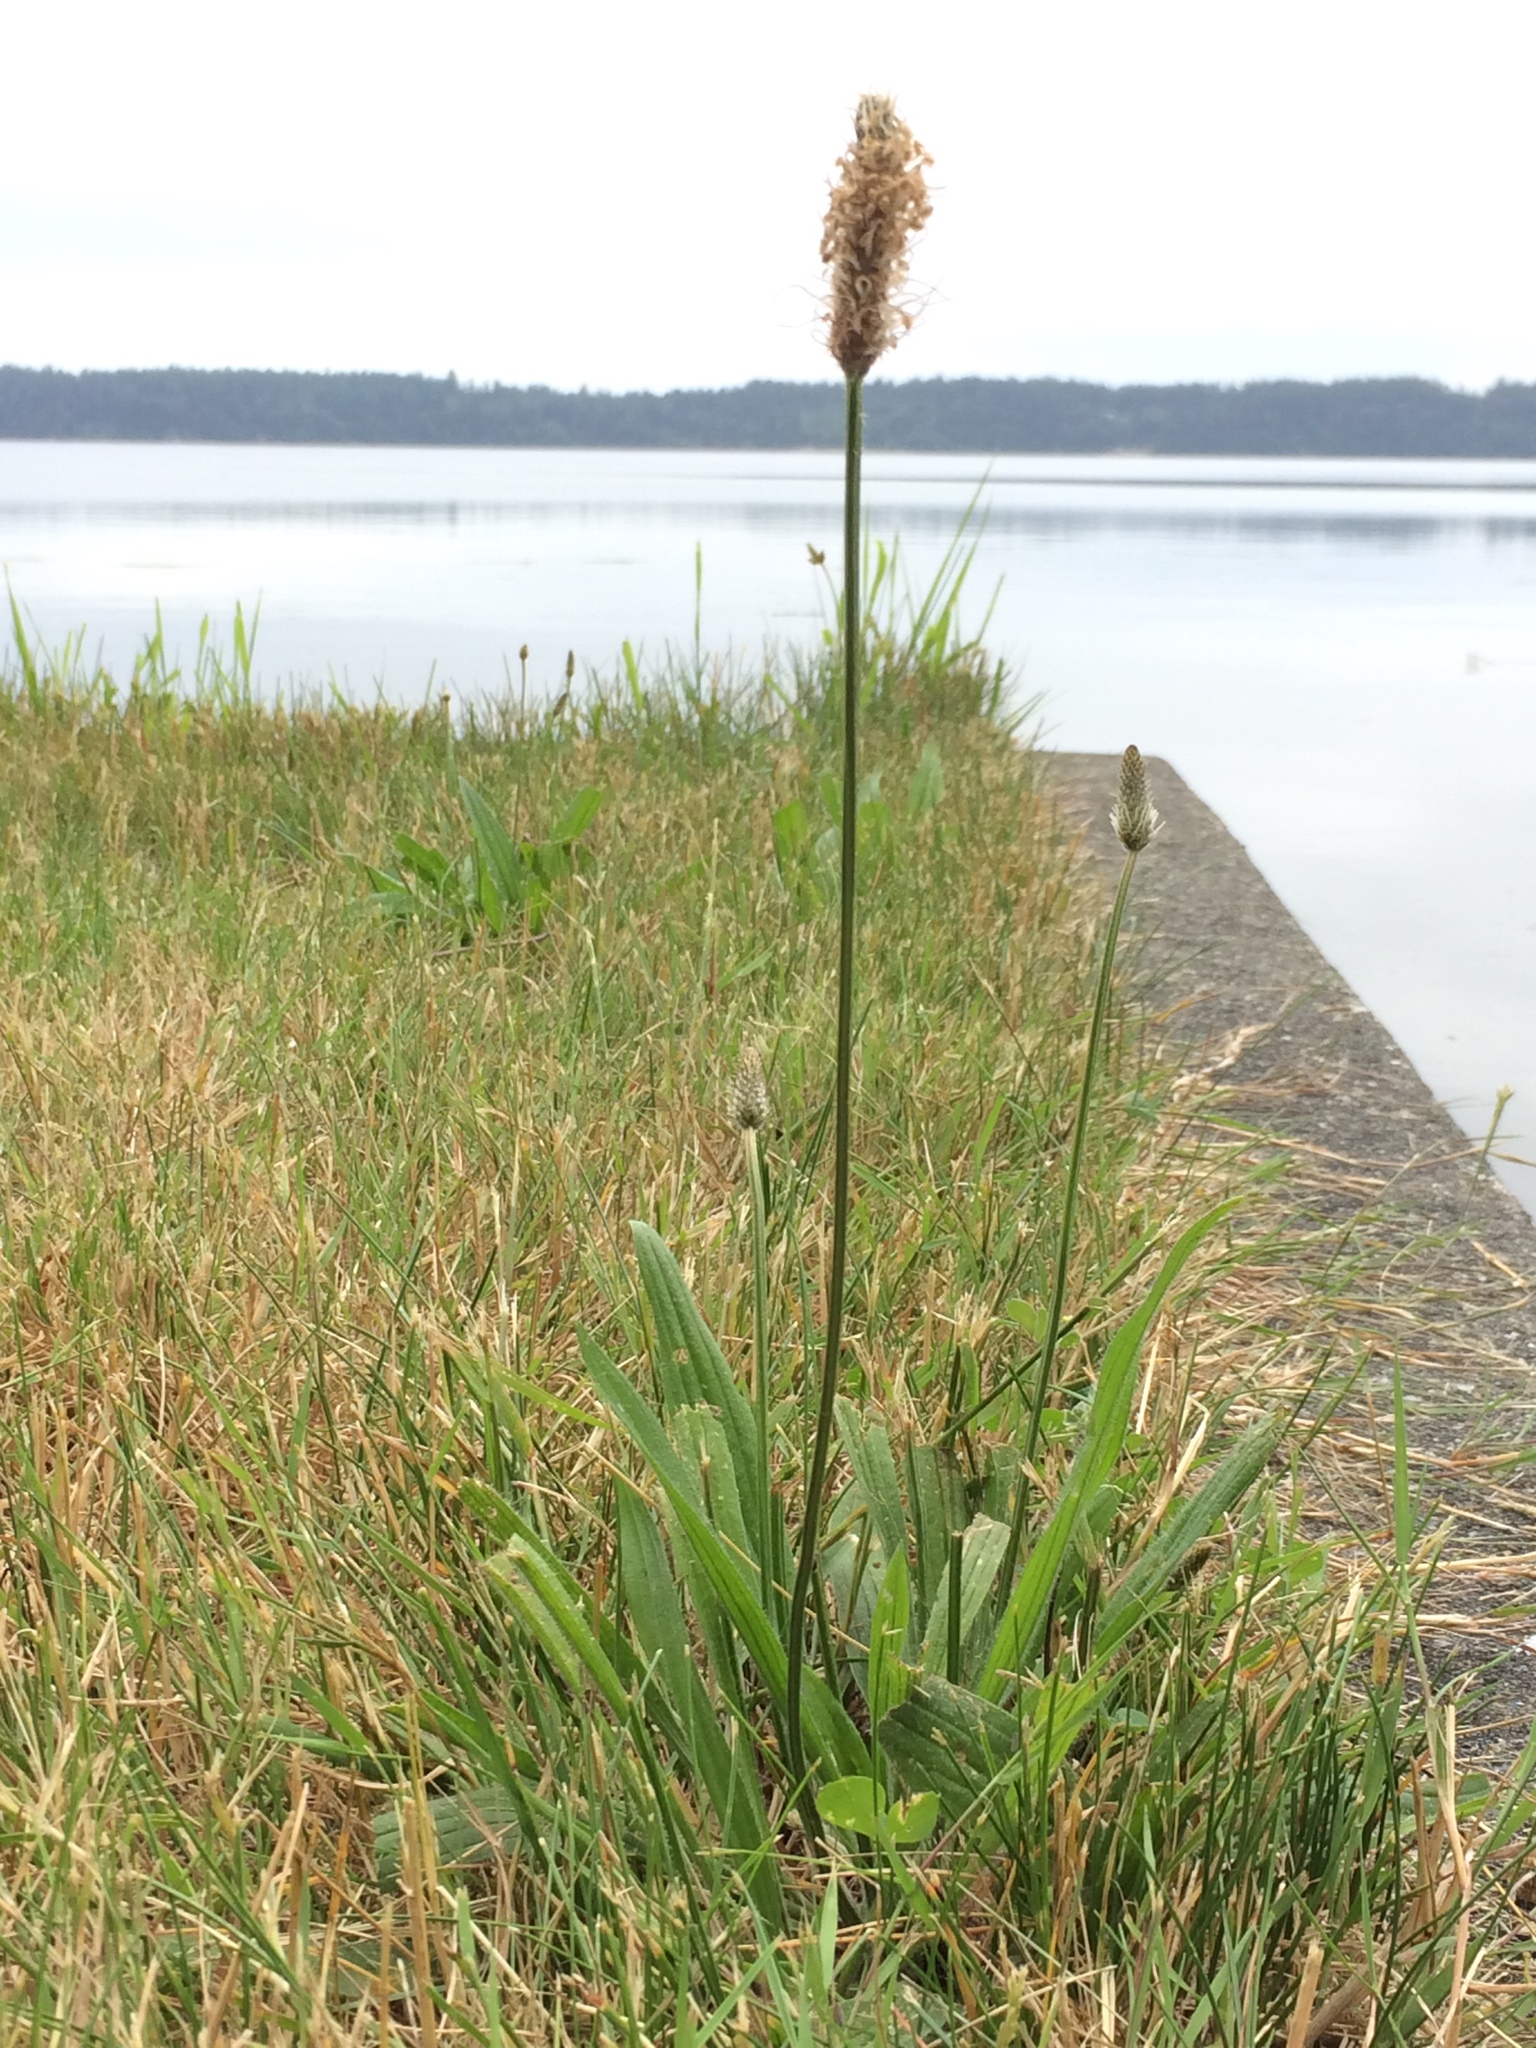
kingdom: Plantae
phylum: Tracheophyta
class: Magnoliopsida
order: Lamiales
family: Plantaginaceae
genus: Plantago
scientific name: Plantago lanceolata
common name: Ribwort plantain
